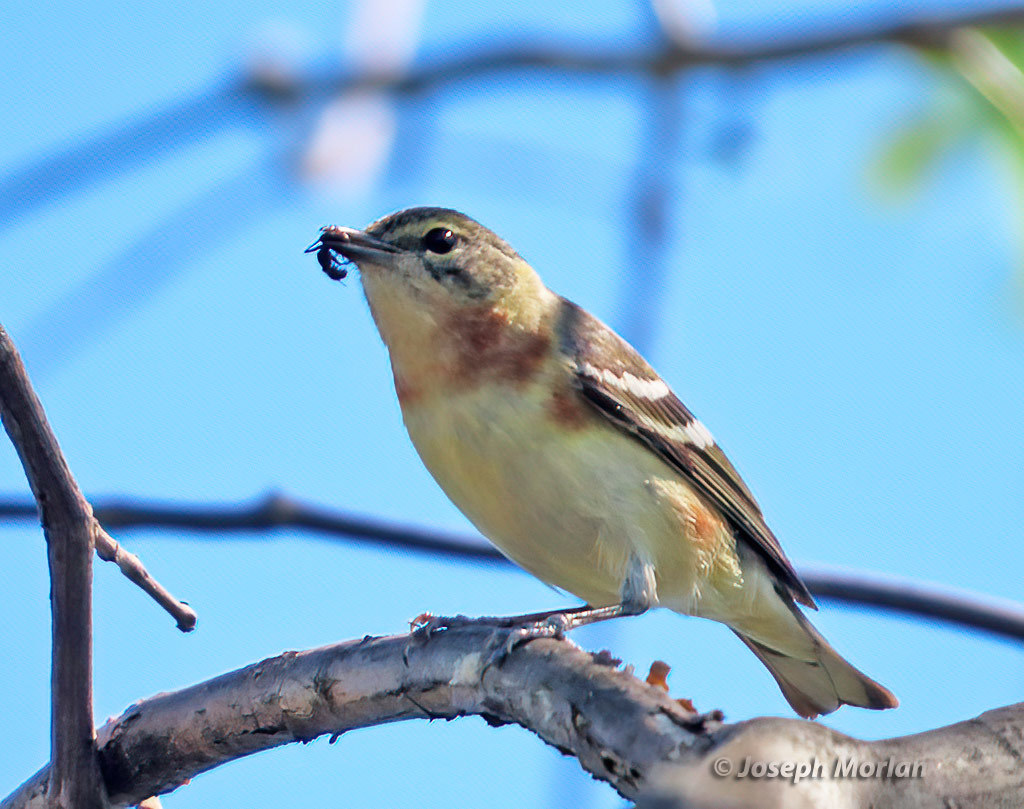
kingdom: Animalia
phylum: Chordata
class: Aves
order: Passeriformes
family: Parulidae
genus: Setophaga
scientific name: Setophaga castanea
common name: Bay-breasted warbler
